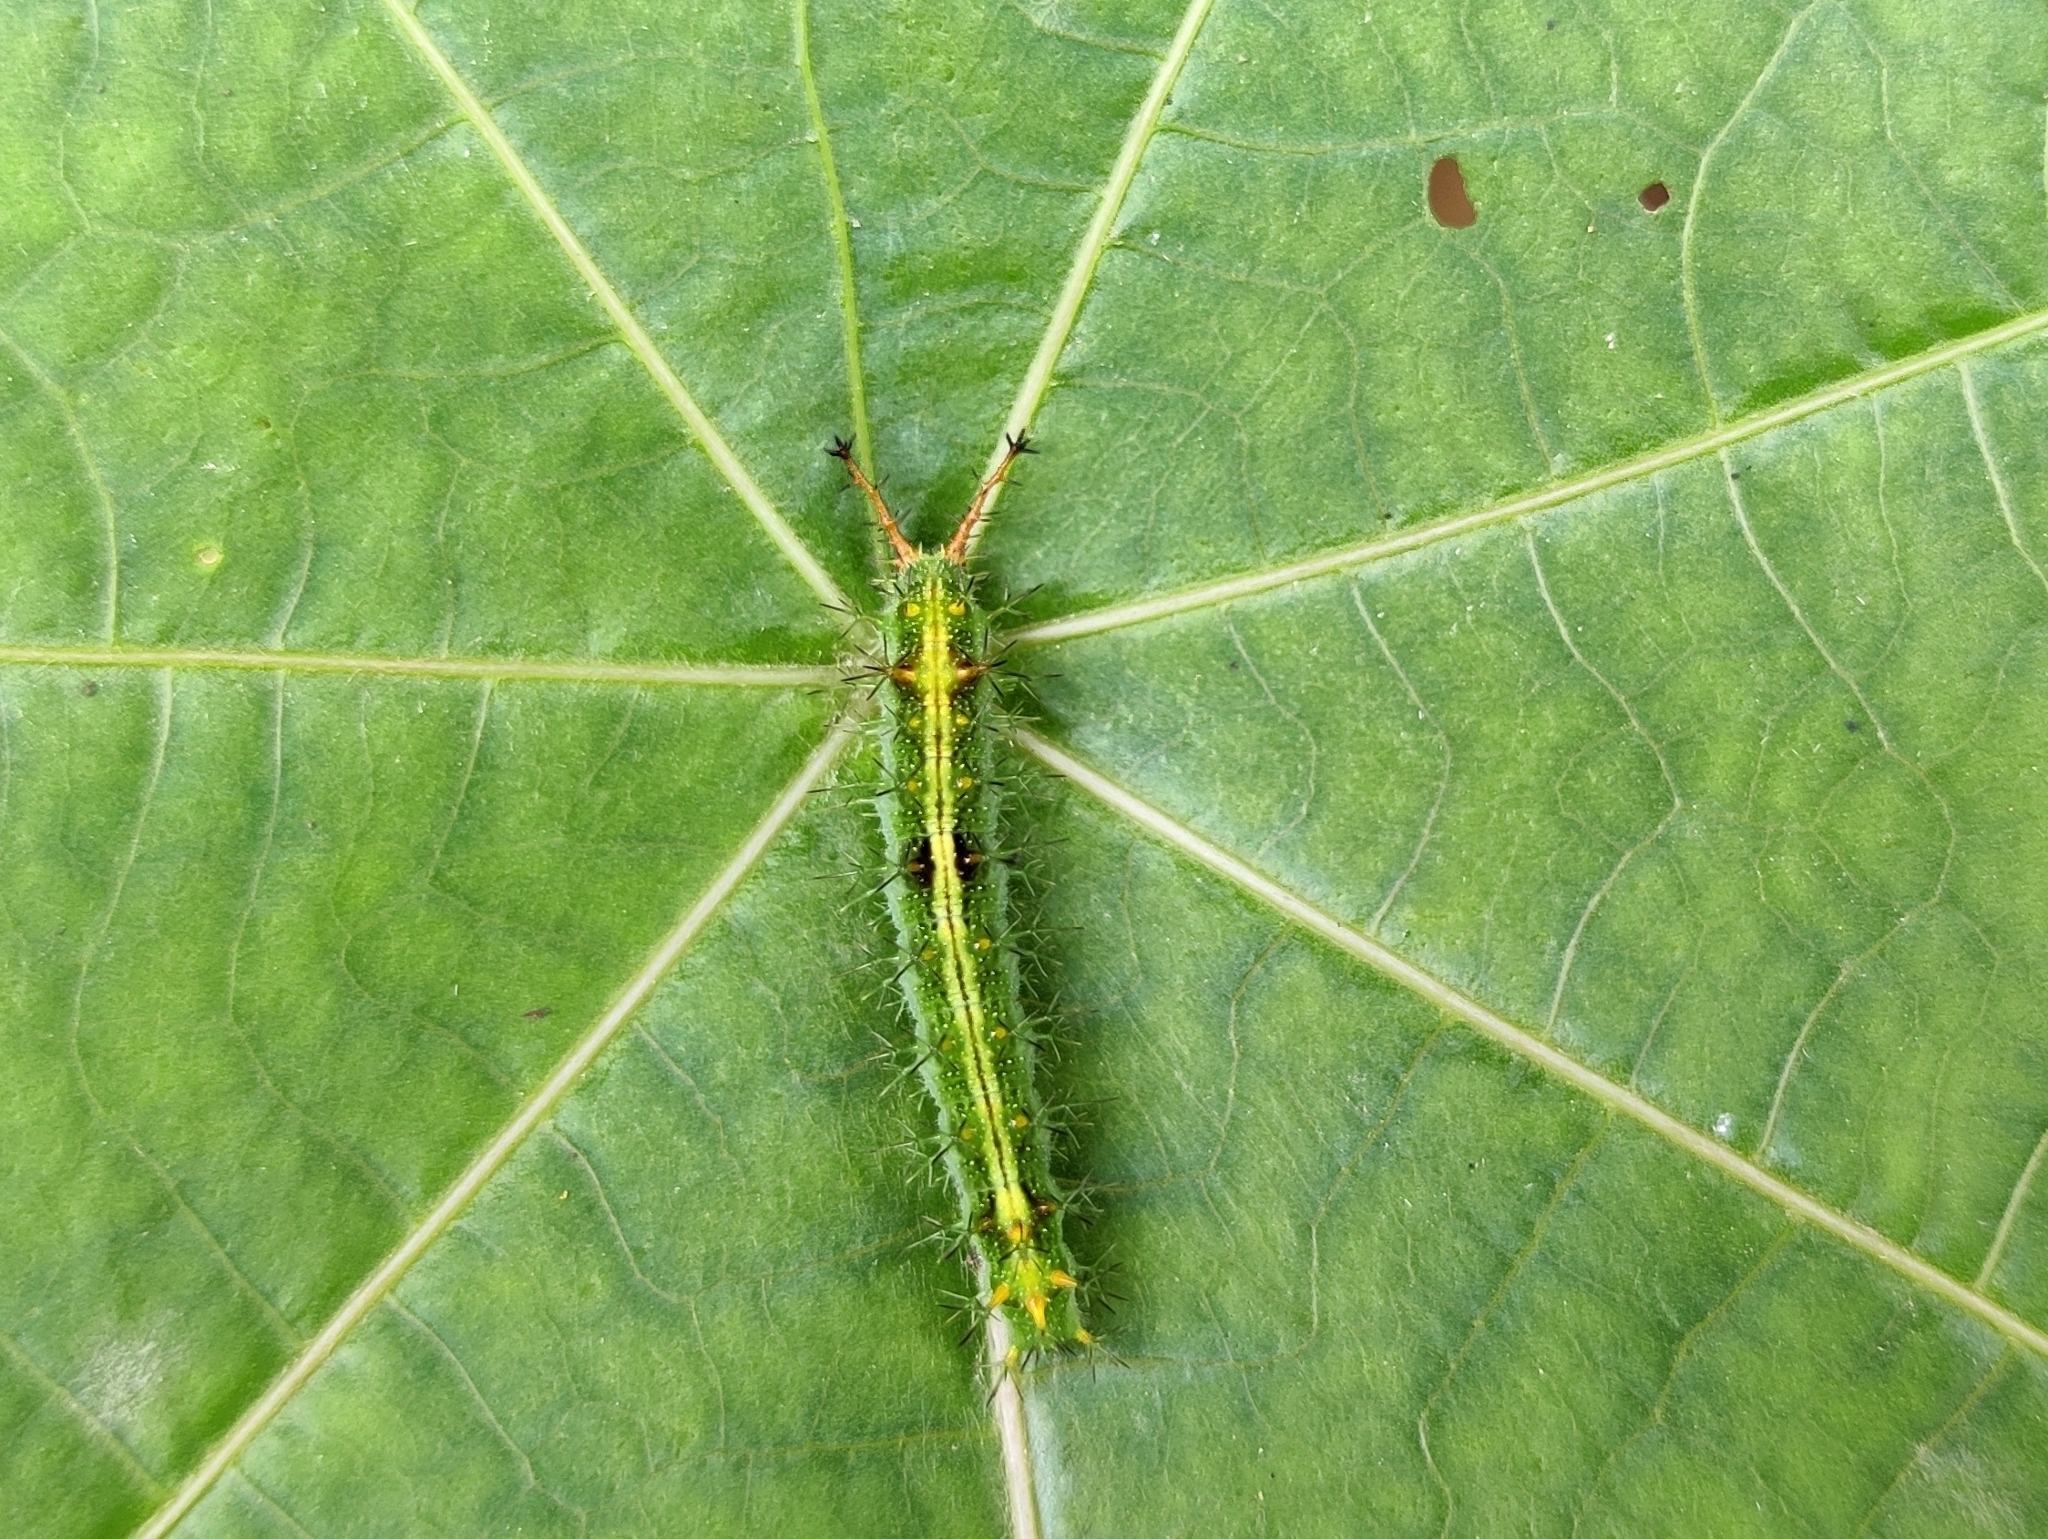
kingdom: Animalia
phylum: Arthropoda
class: Insecta
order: Lepidoptera
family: Nymphalidae
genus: Ariadne
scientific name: Ariadne merione
